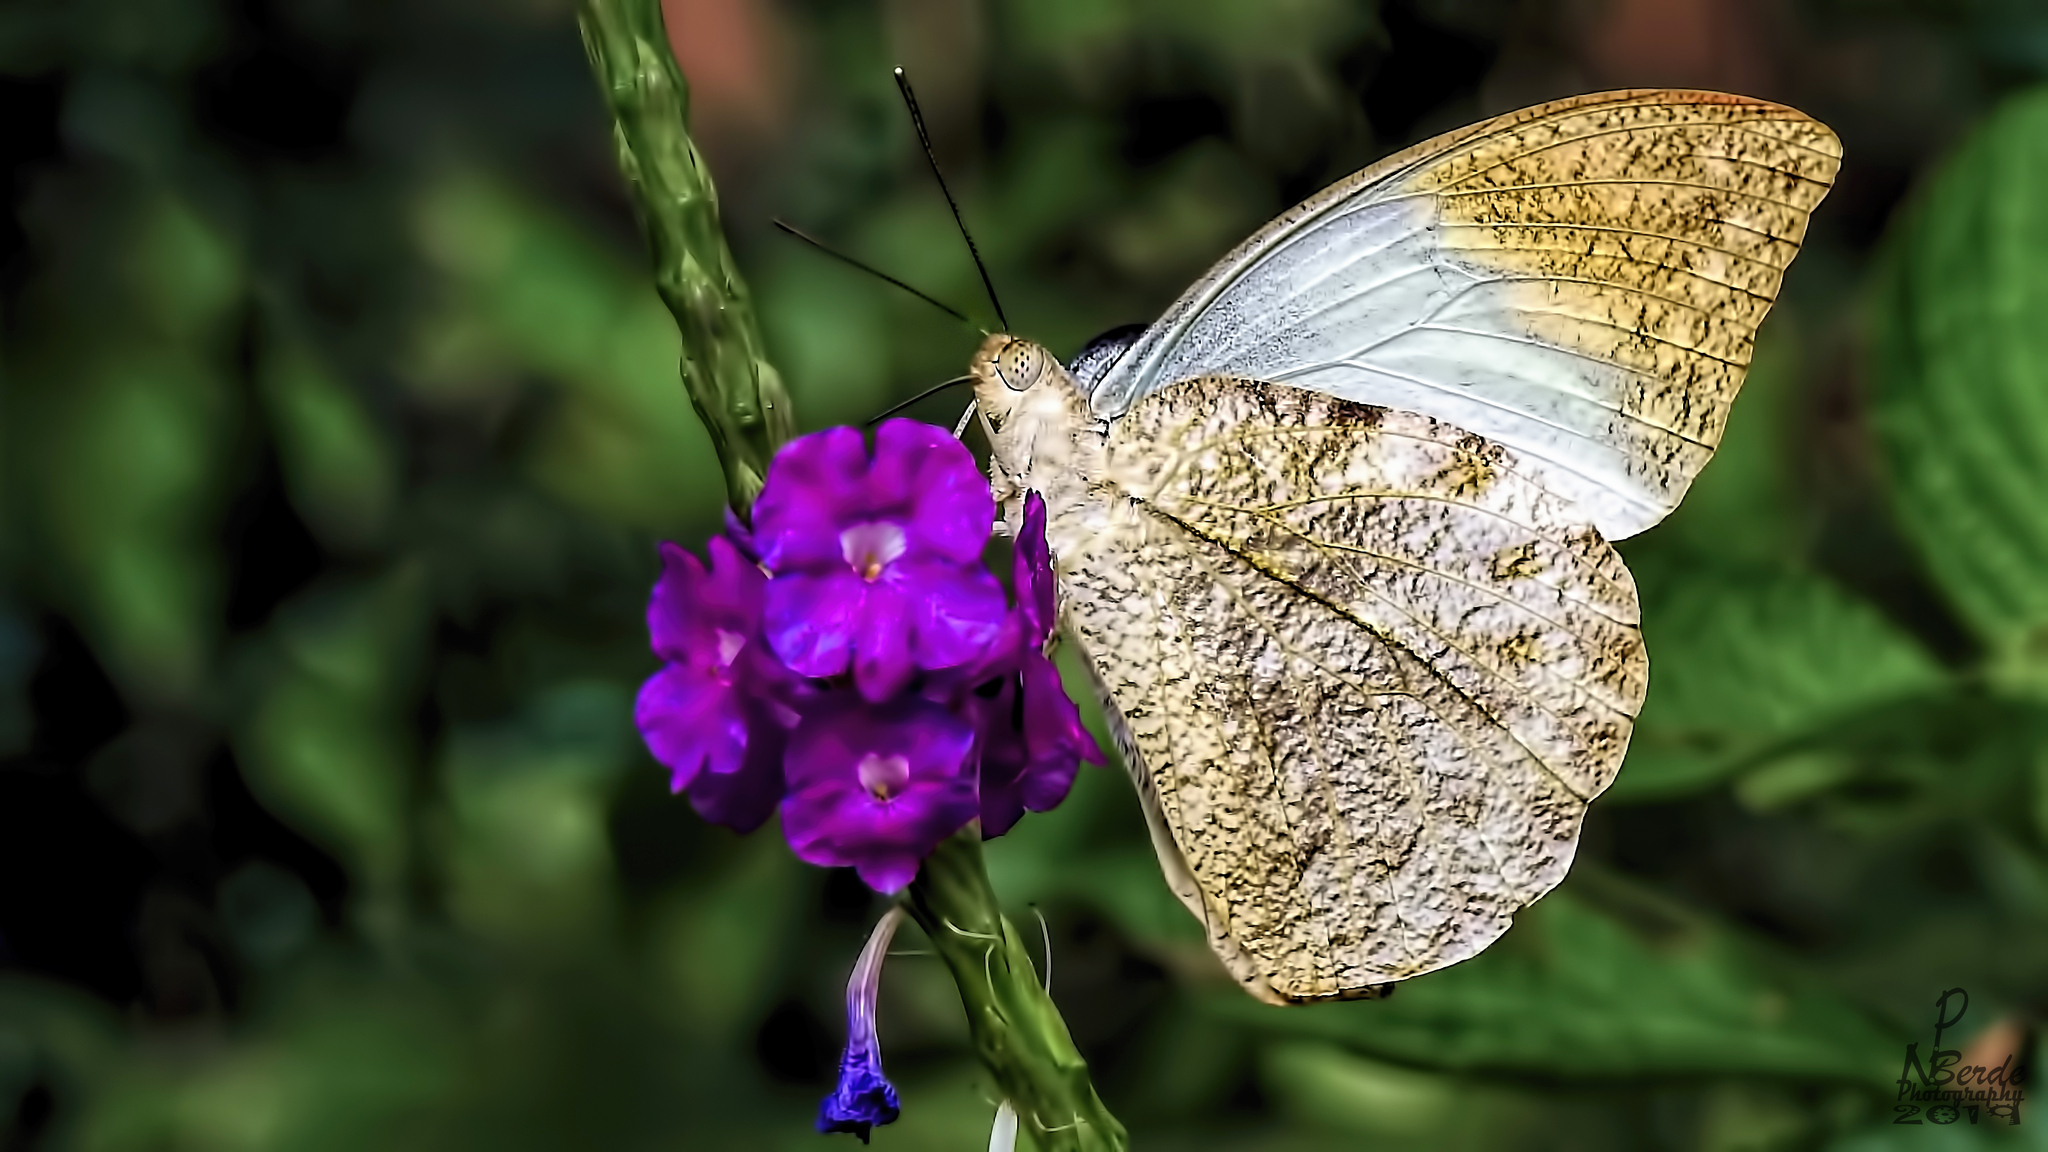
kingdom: Animalia
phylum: Arthropoda
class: Insecta
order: Lepidoptera
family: Pieridae
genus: Hebomoia
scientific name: Hebomoia glaucippe
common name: Great orange tip
